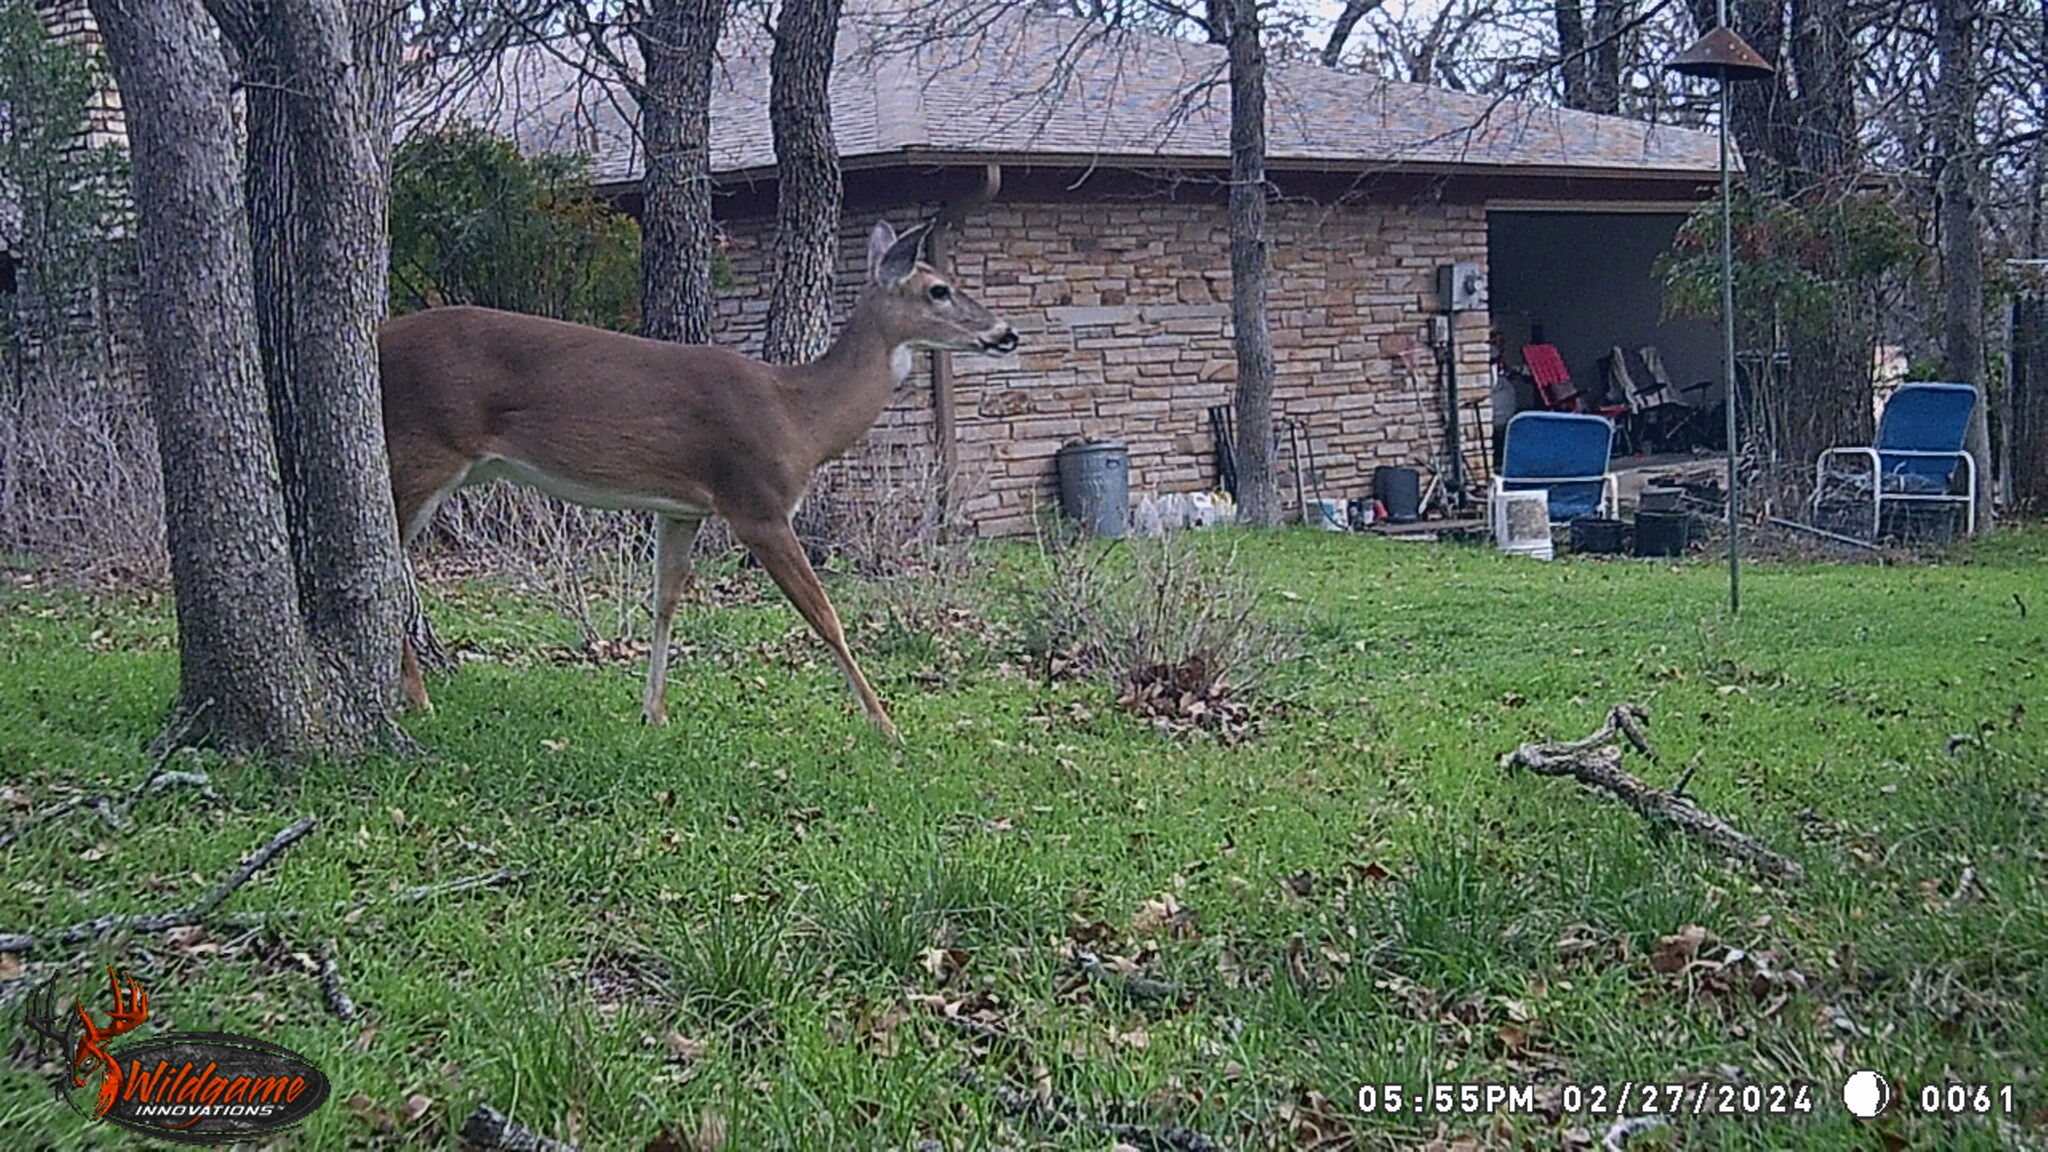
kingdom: Animalia
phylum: Chordata
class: Mammalia
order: Artiodactyla
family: Cervidae
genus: Odocoileus
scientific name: Odocoileus virginianus
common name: White-tailed deer
